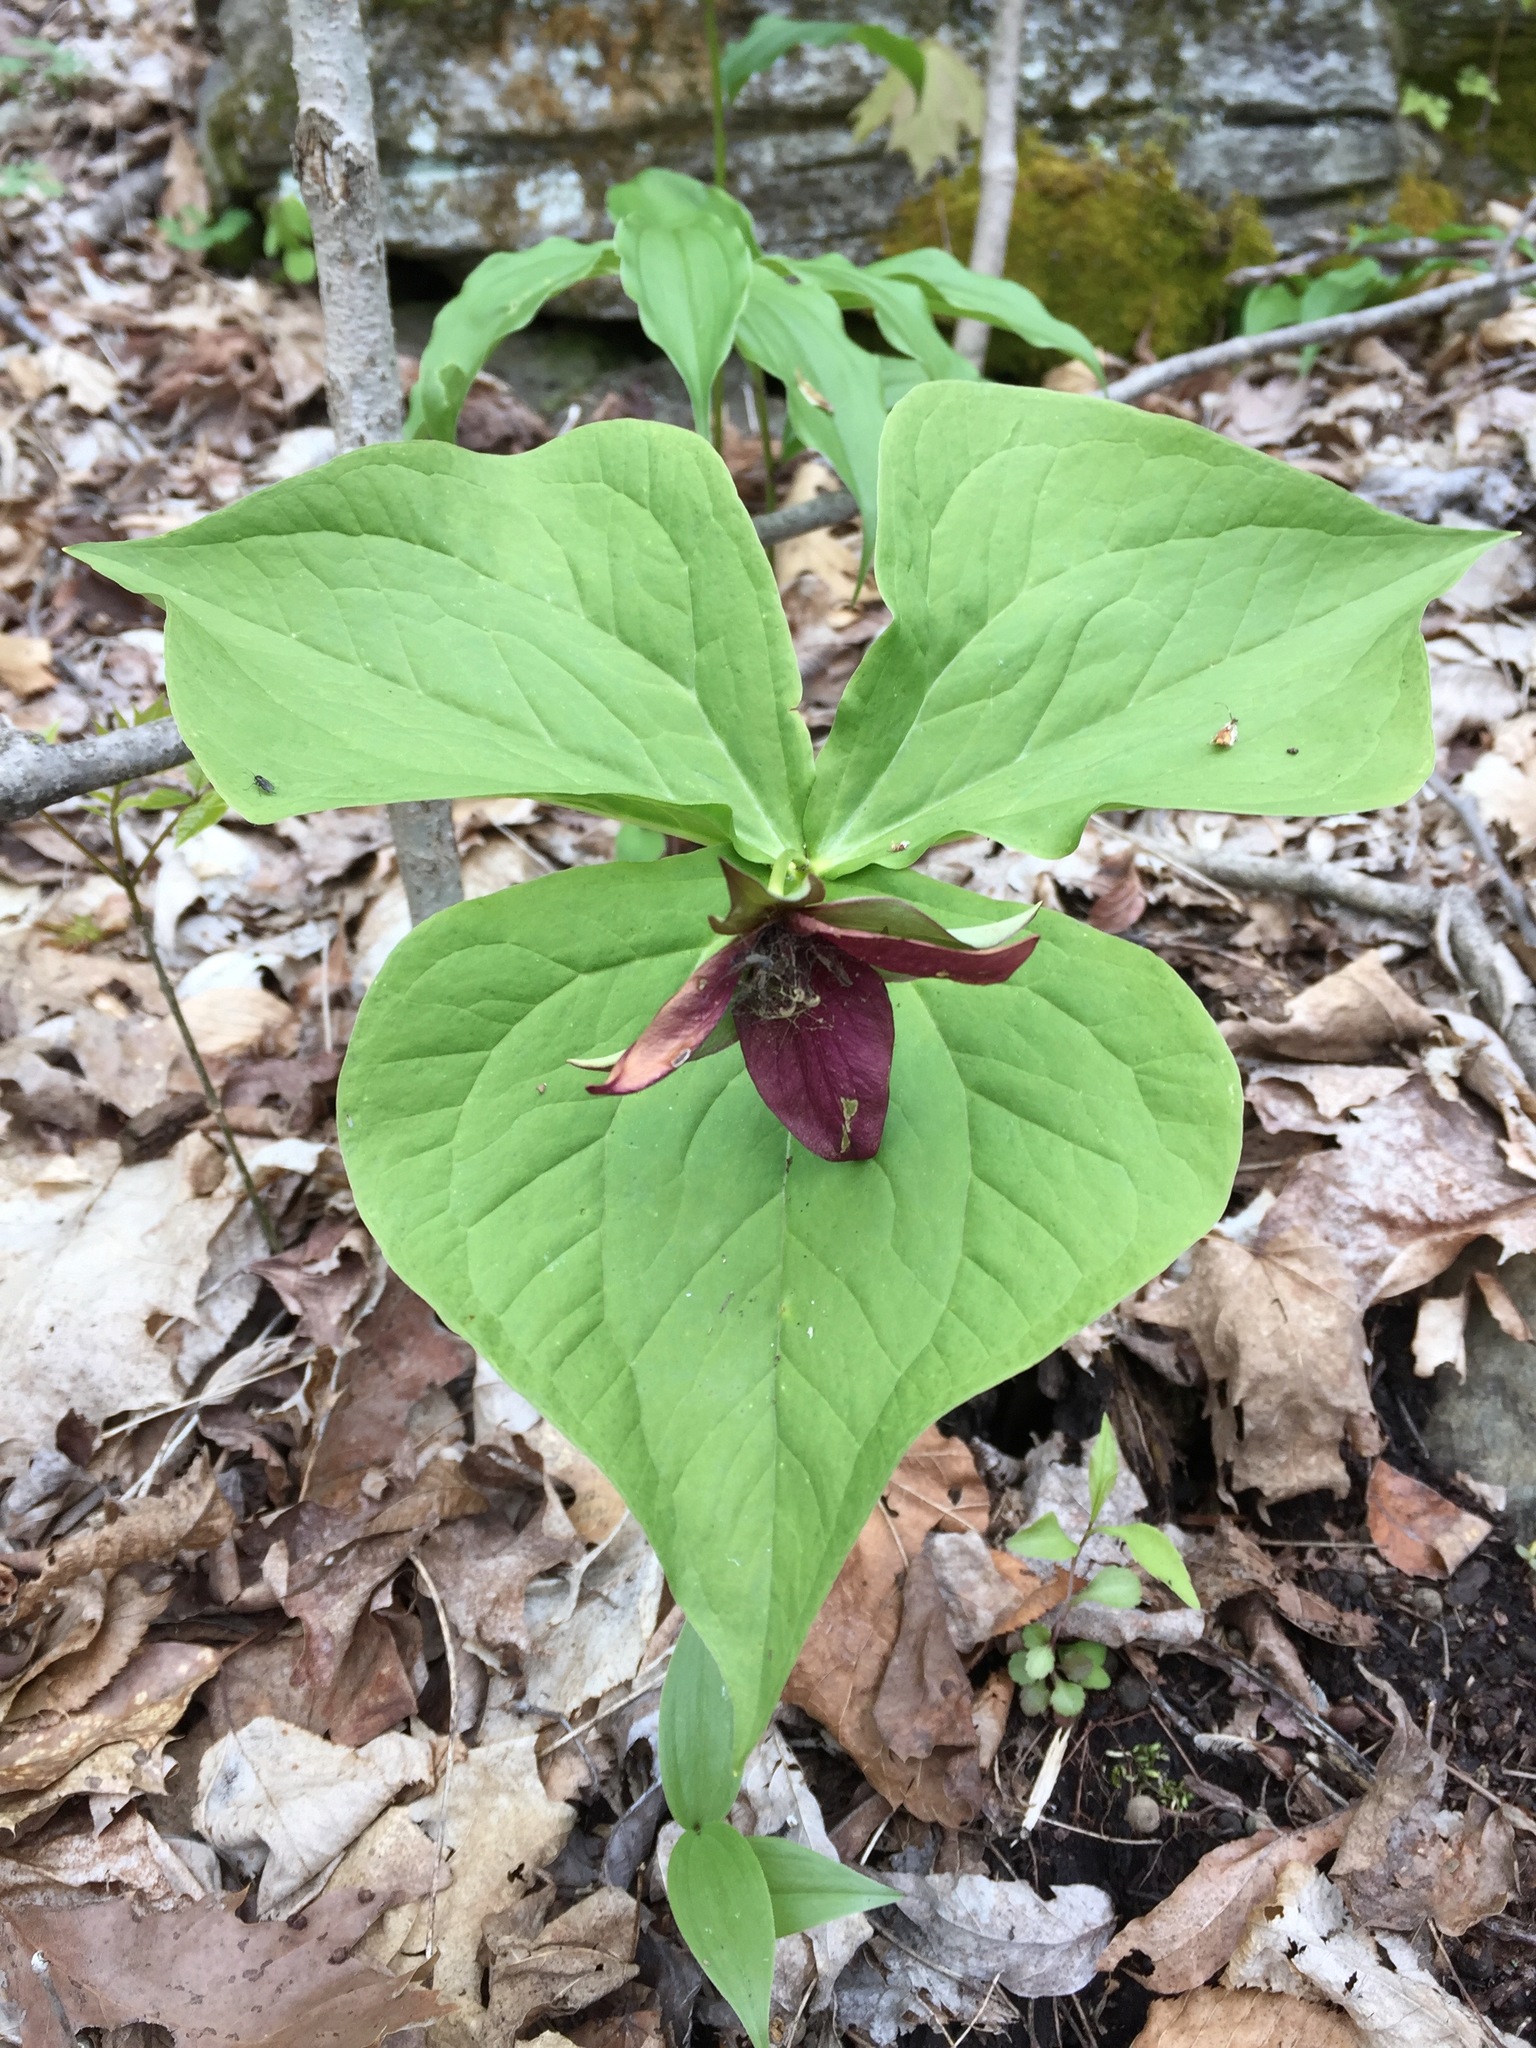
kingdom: Plantae
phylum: Tracheophyta
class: Liliopsida
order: Liliales
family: Melanthiaceae
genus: Trillium
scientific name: Trillium erectum
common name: Purple trillium
